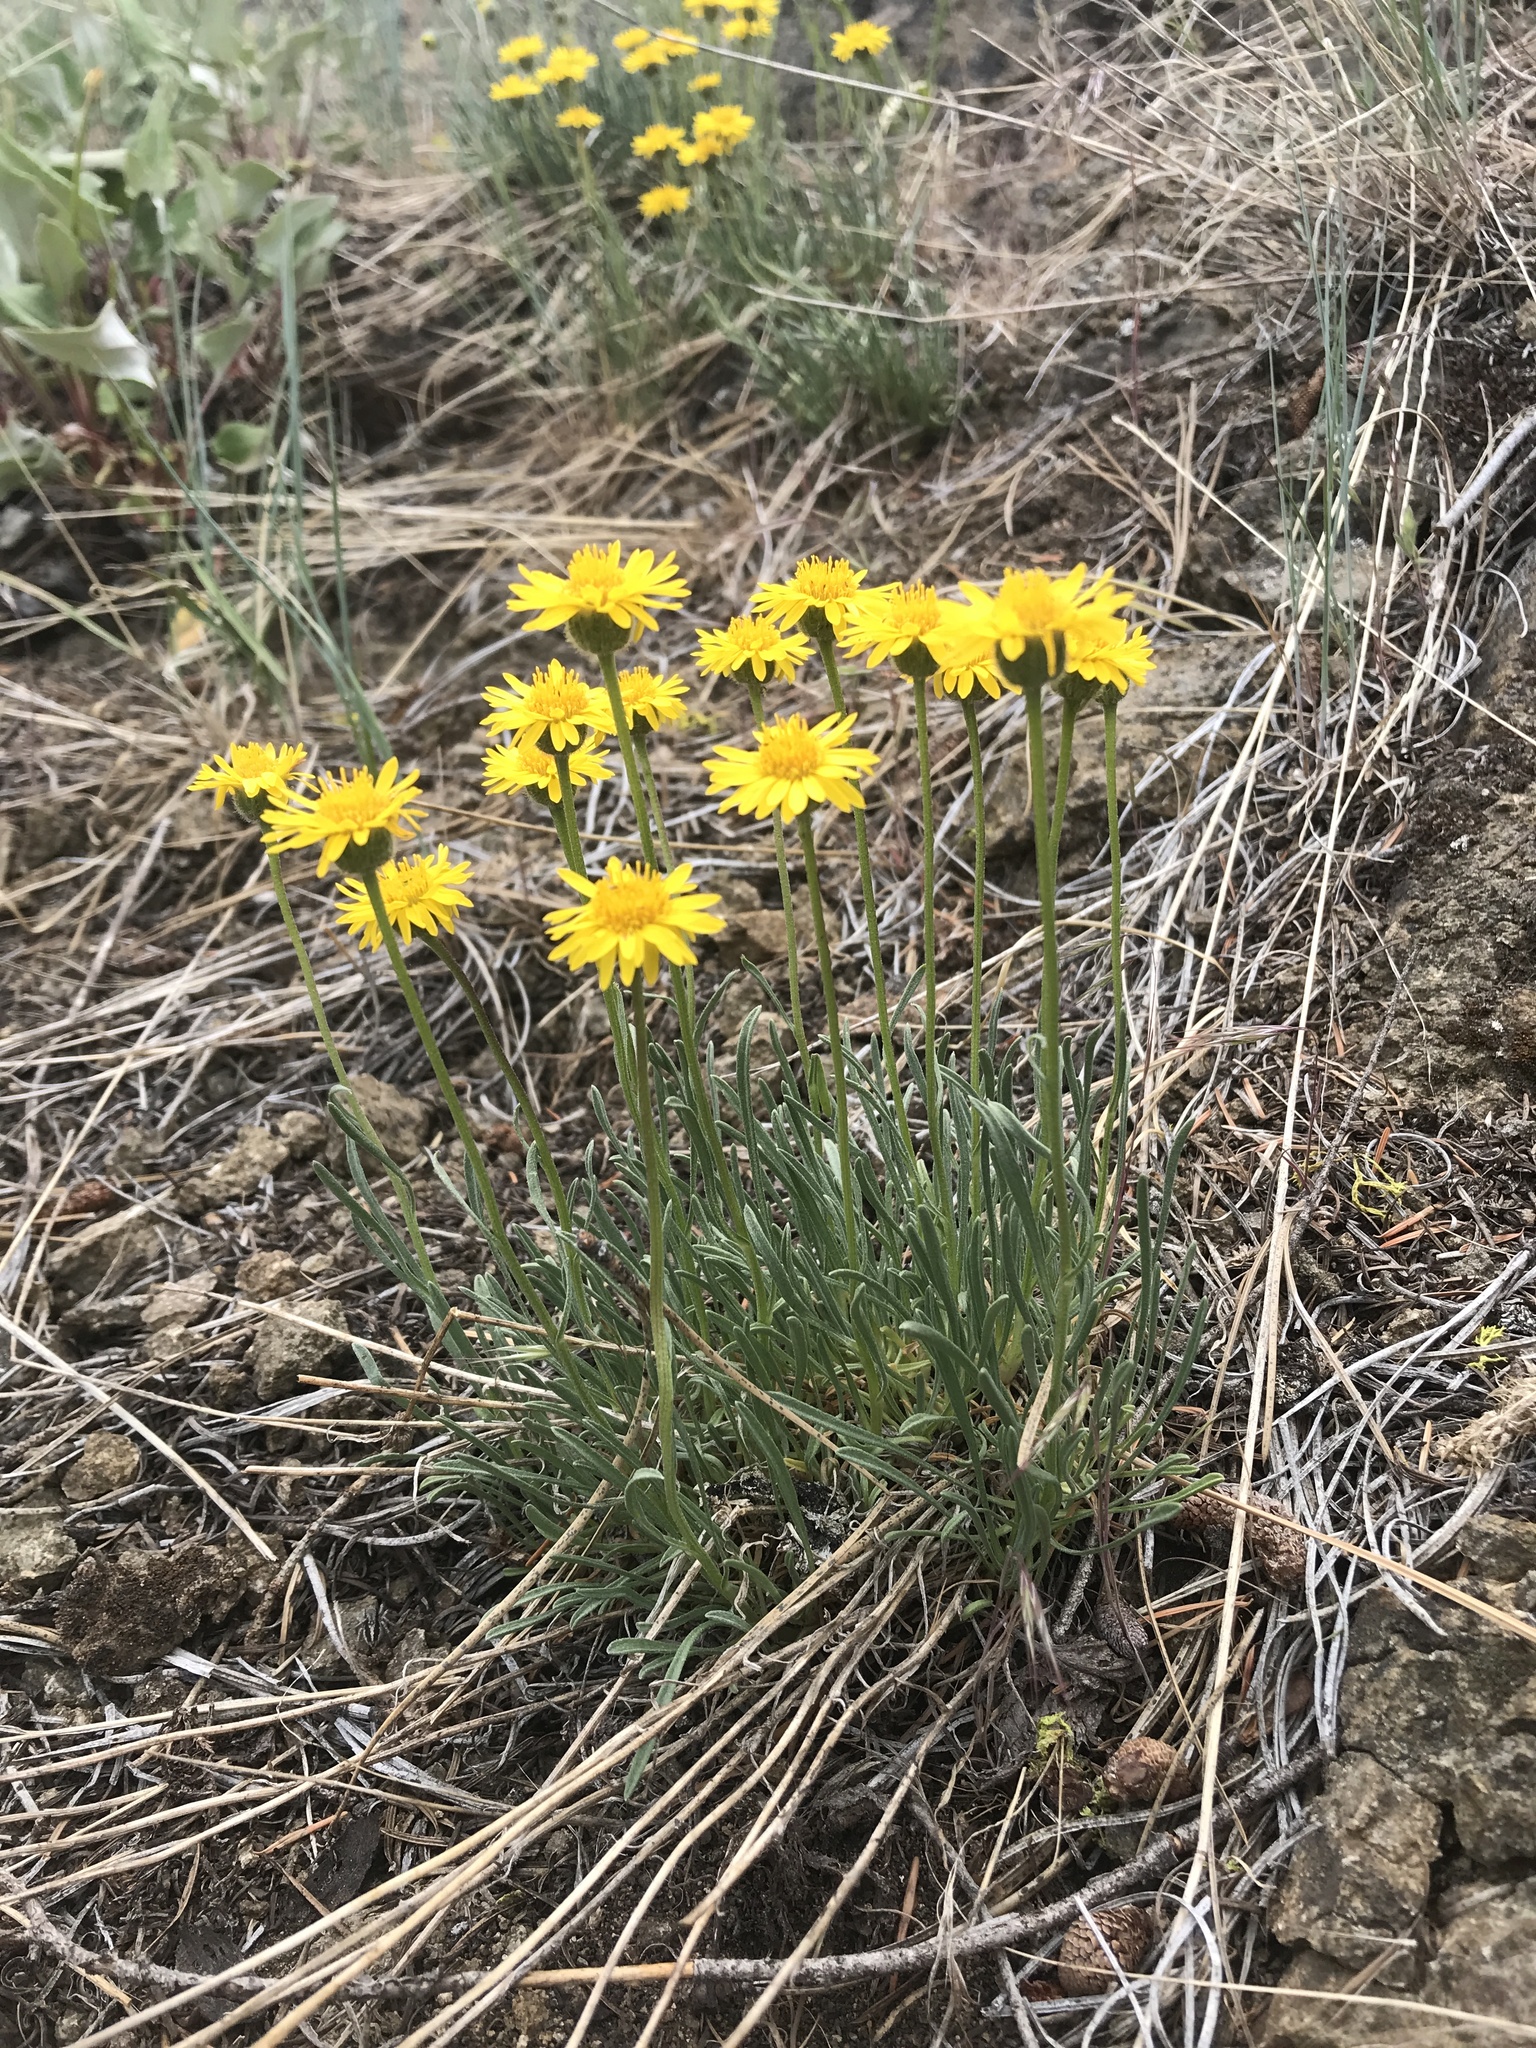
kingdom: Plantae
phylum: Tracheophyta
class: Magnoliopsida
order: Asterales
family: Asteraceae
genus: Erigeron
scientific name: Erigeron linearis
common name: Desert yellow fleabane
